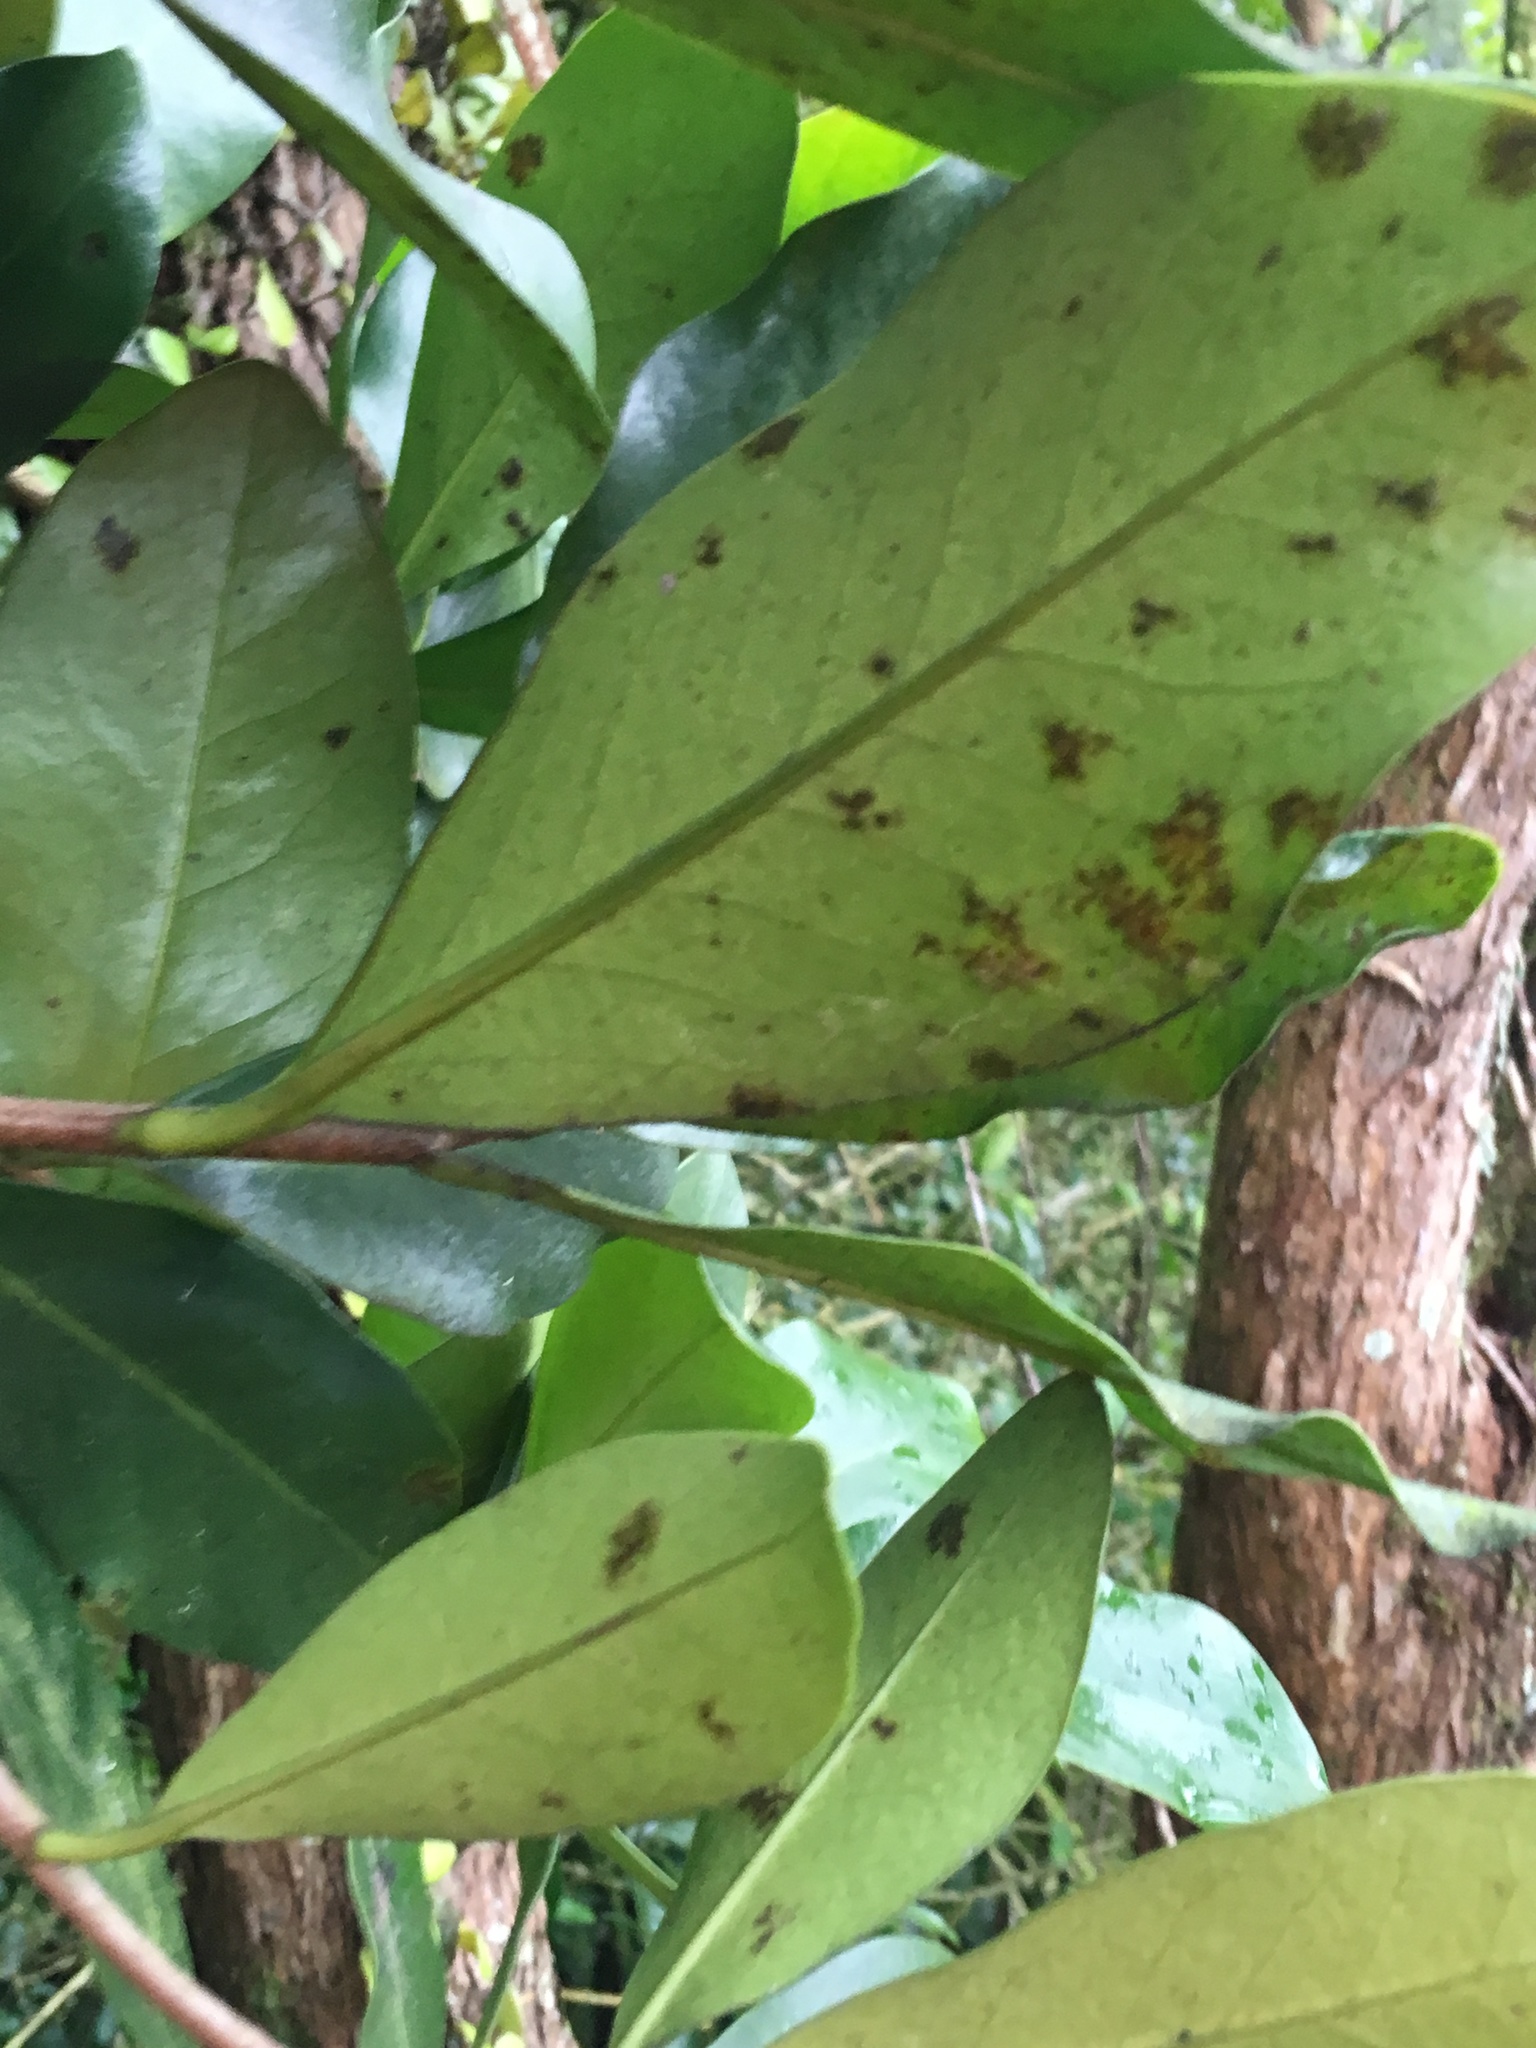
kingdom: Plantae
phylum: Tracheophyta
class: Magnoliopsida
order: Cucurbitales
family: Corynocarpaceae
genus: Corynocarpus
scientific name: Corynocarpus laevigatus
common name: New zealand laurel
